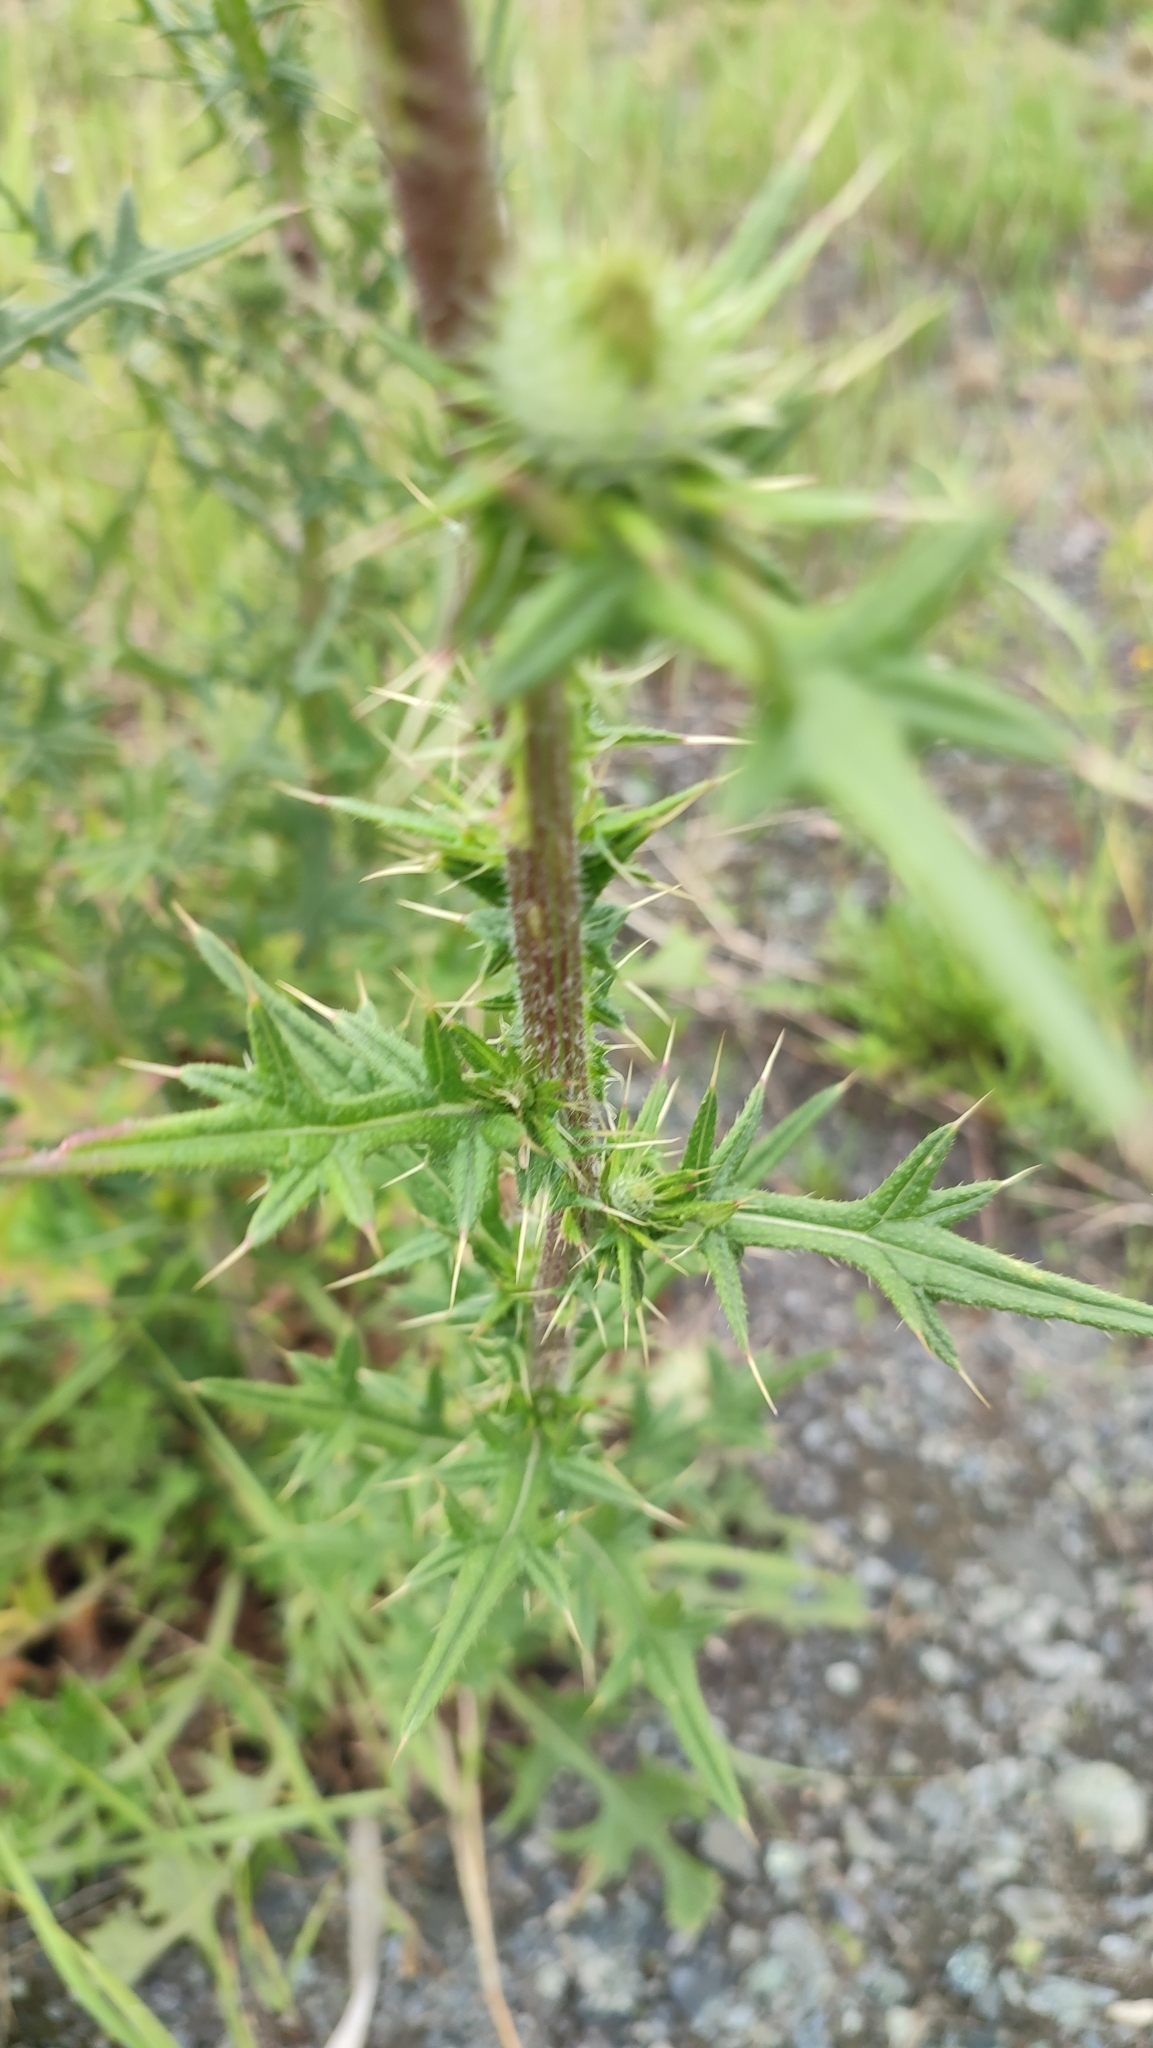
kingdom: Plantae
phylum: Tracheophyta
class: Magnoliopsida
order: Asterales
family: Asteraceae
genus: Cirsium
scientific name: Cirsium vulgare
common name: Bull thistle
